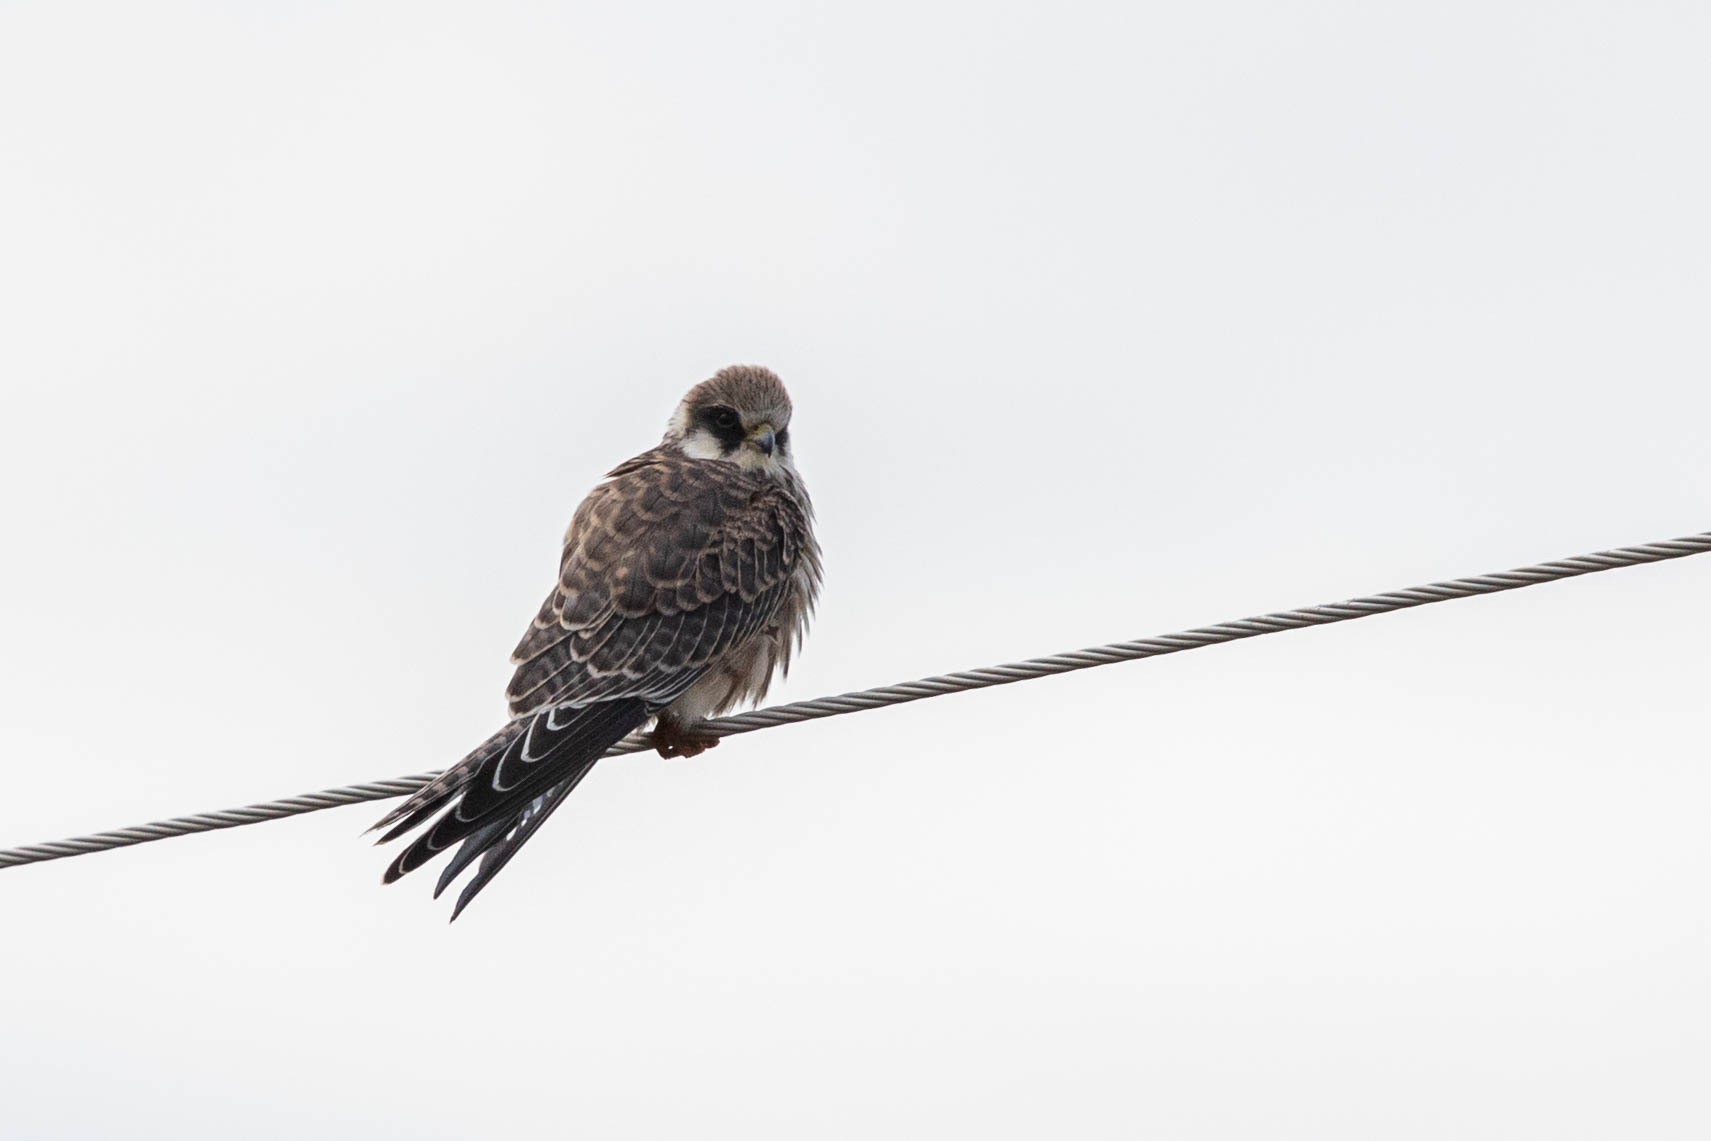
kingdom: Animalia
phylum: Chordata
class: Aves
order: Falconiformes
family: Falconidae
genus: Falco
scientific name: Falco vespertinus
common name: Red-footed falcon
